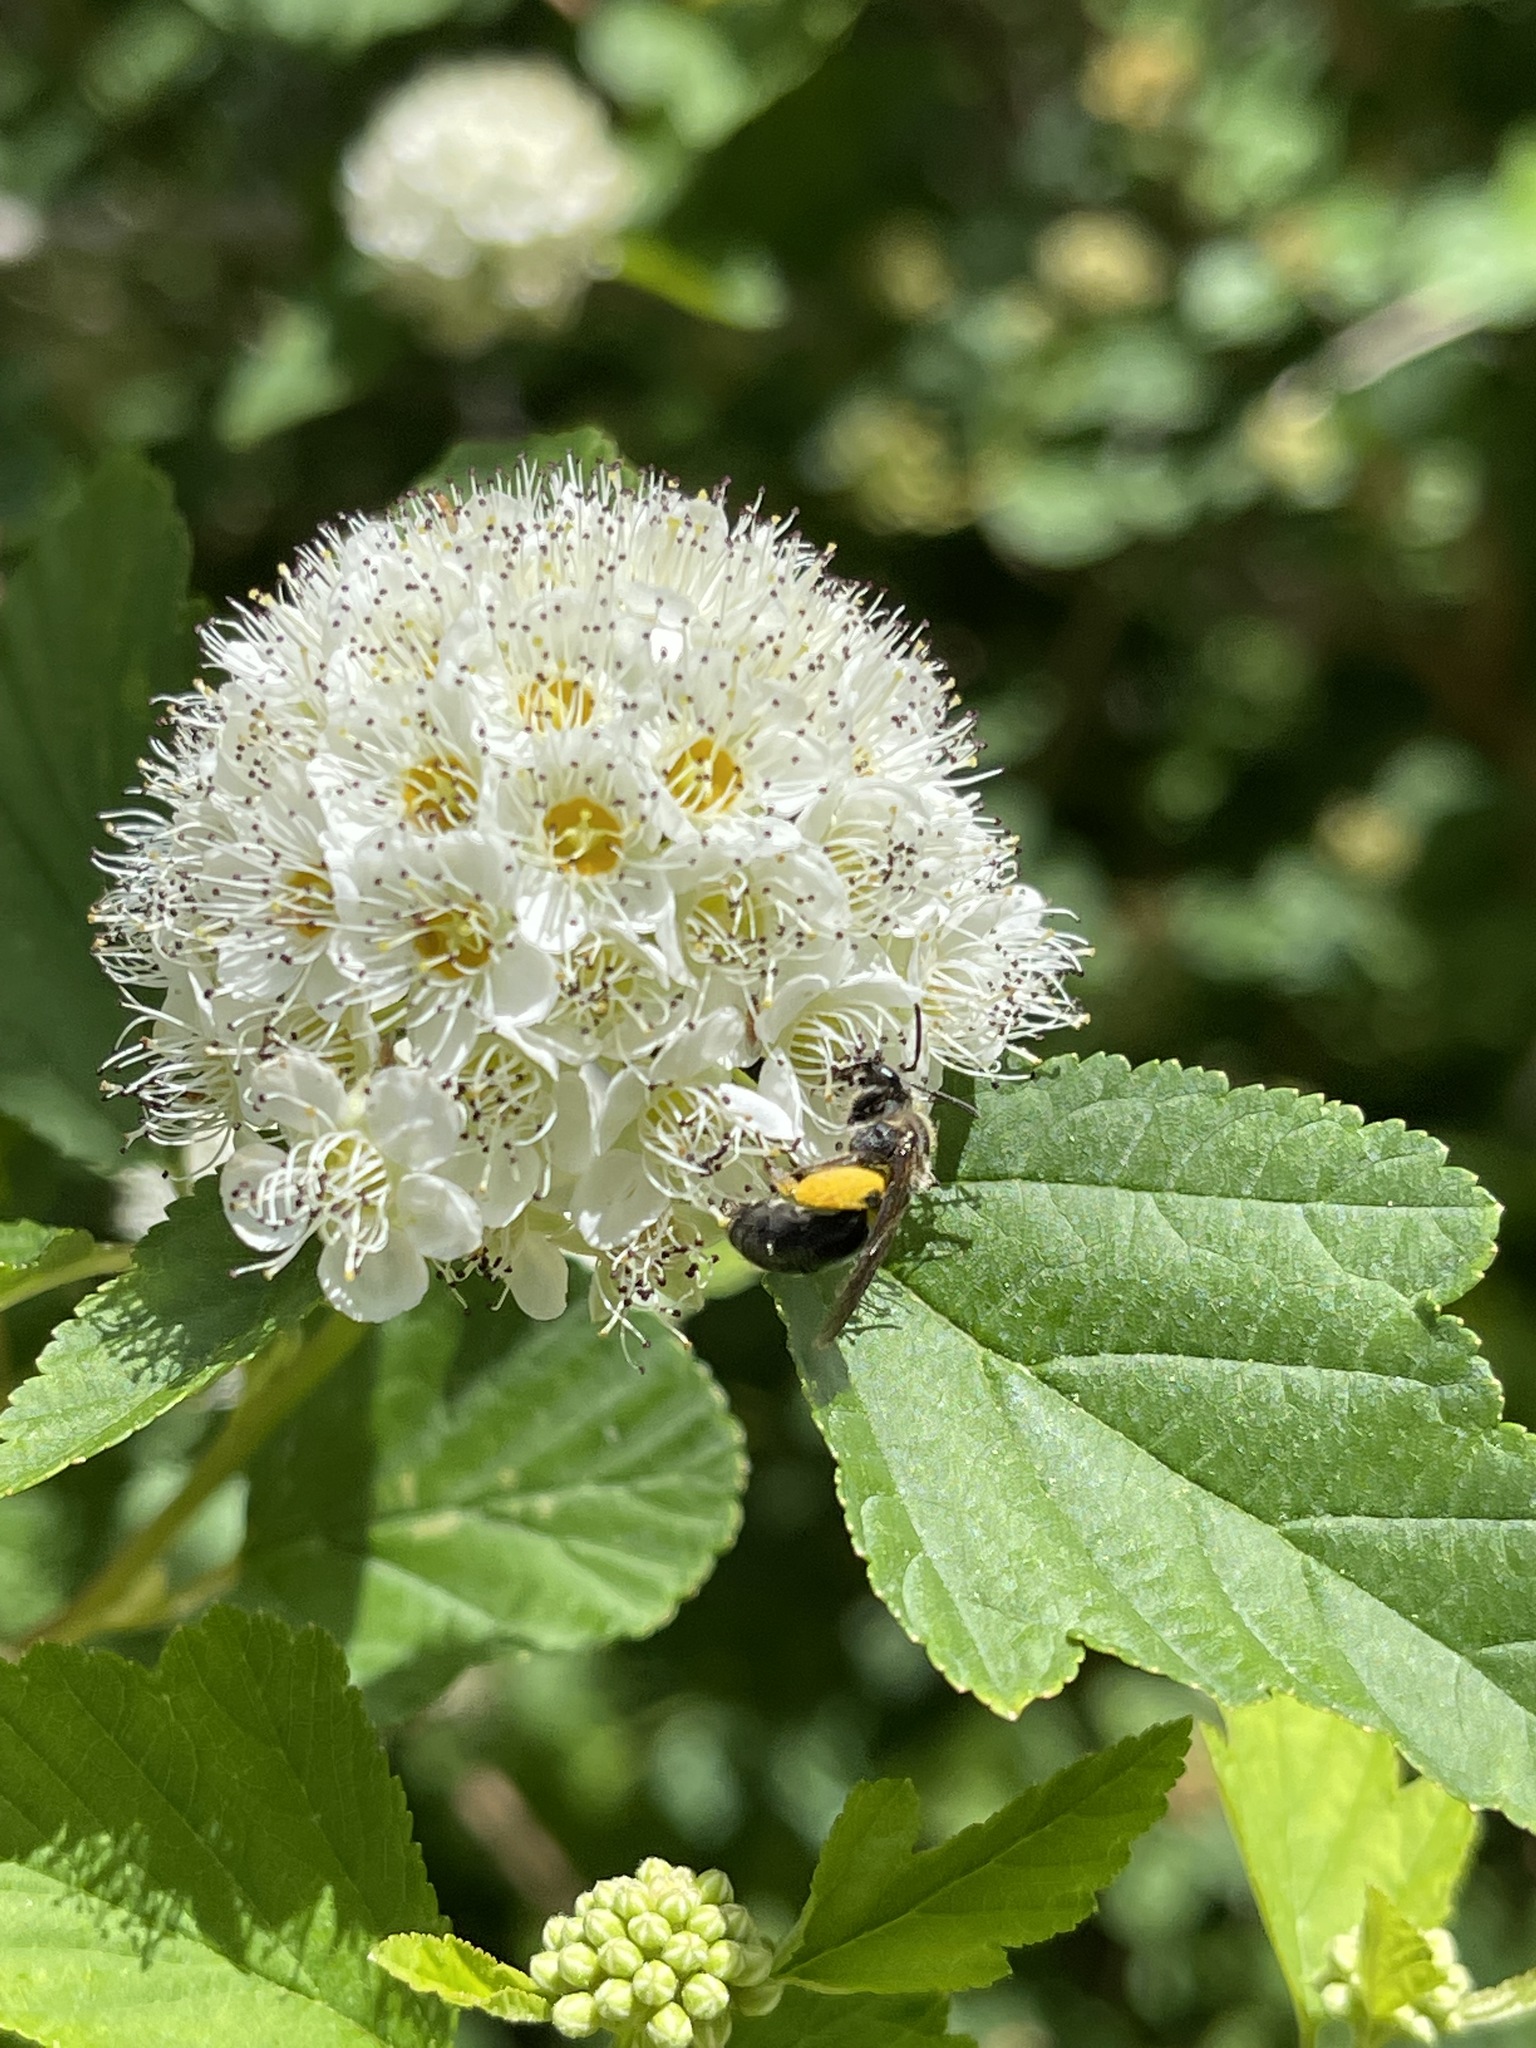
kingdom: Plantae
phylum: Tracheophyta
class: Magnoliopsida
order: Rosales
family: Rosaceae
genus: Physocarpus
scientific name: Physocarpus opulifolius
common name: Ninebark
